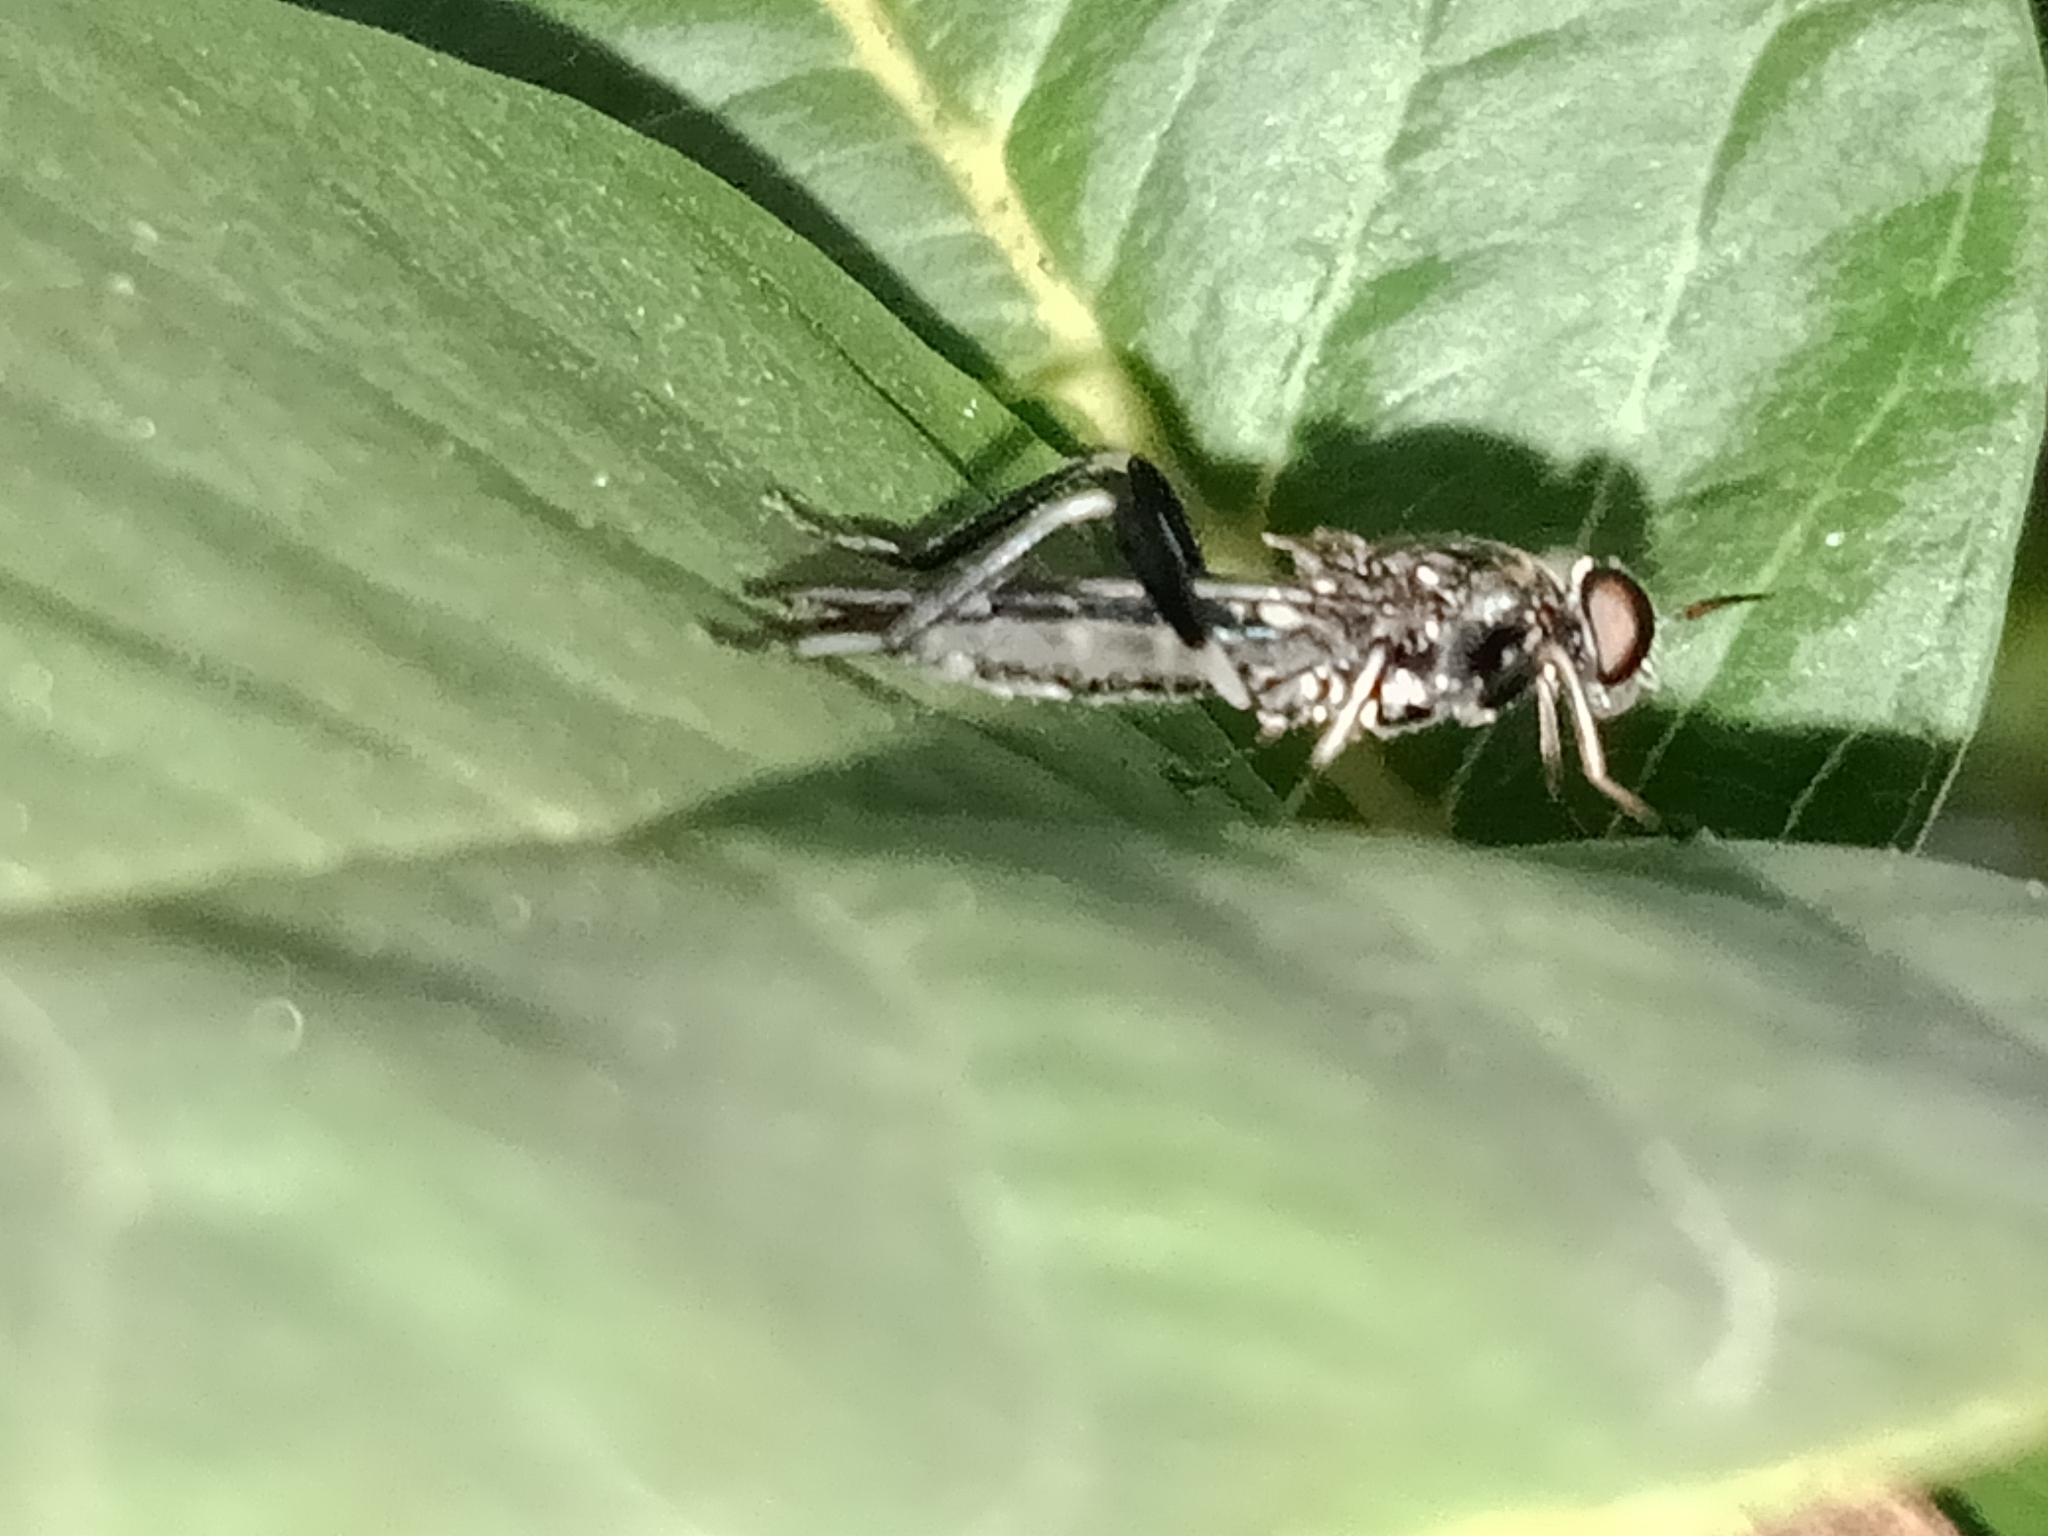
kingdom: Animalia
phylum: Arthropoda
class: Insecta
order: Diptera
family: Stratiomyidae
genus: Exaireta
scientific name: Exaireta spinigera
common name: Blue soldier fly
